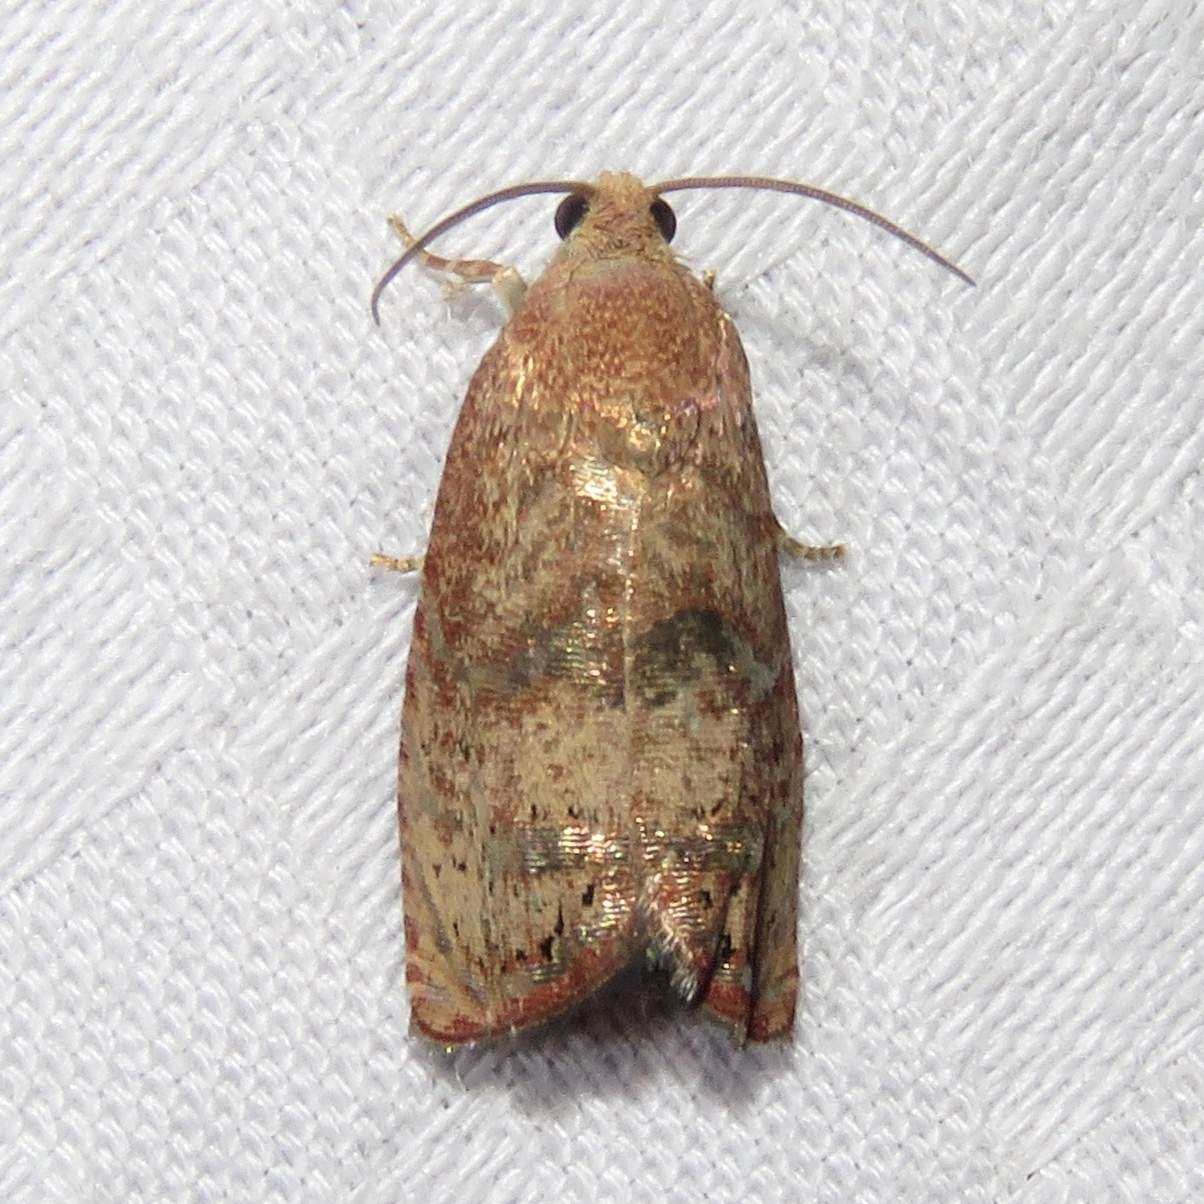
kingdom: Animalia
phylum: Arthropoda
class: Insecta
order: Lepidoptera
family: Tortricidae
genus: Cydia
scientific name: Cydia latiferreana
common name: Filbertworm moth
